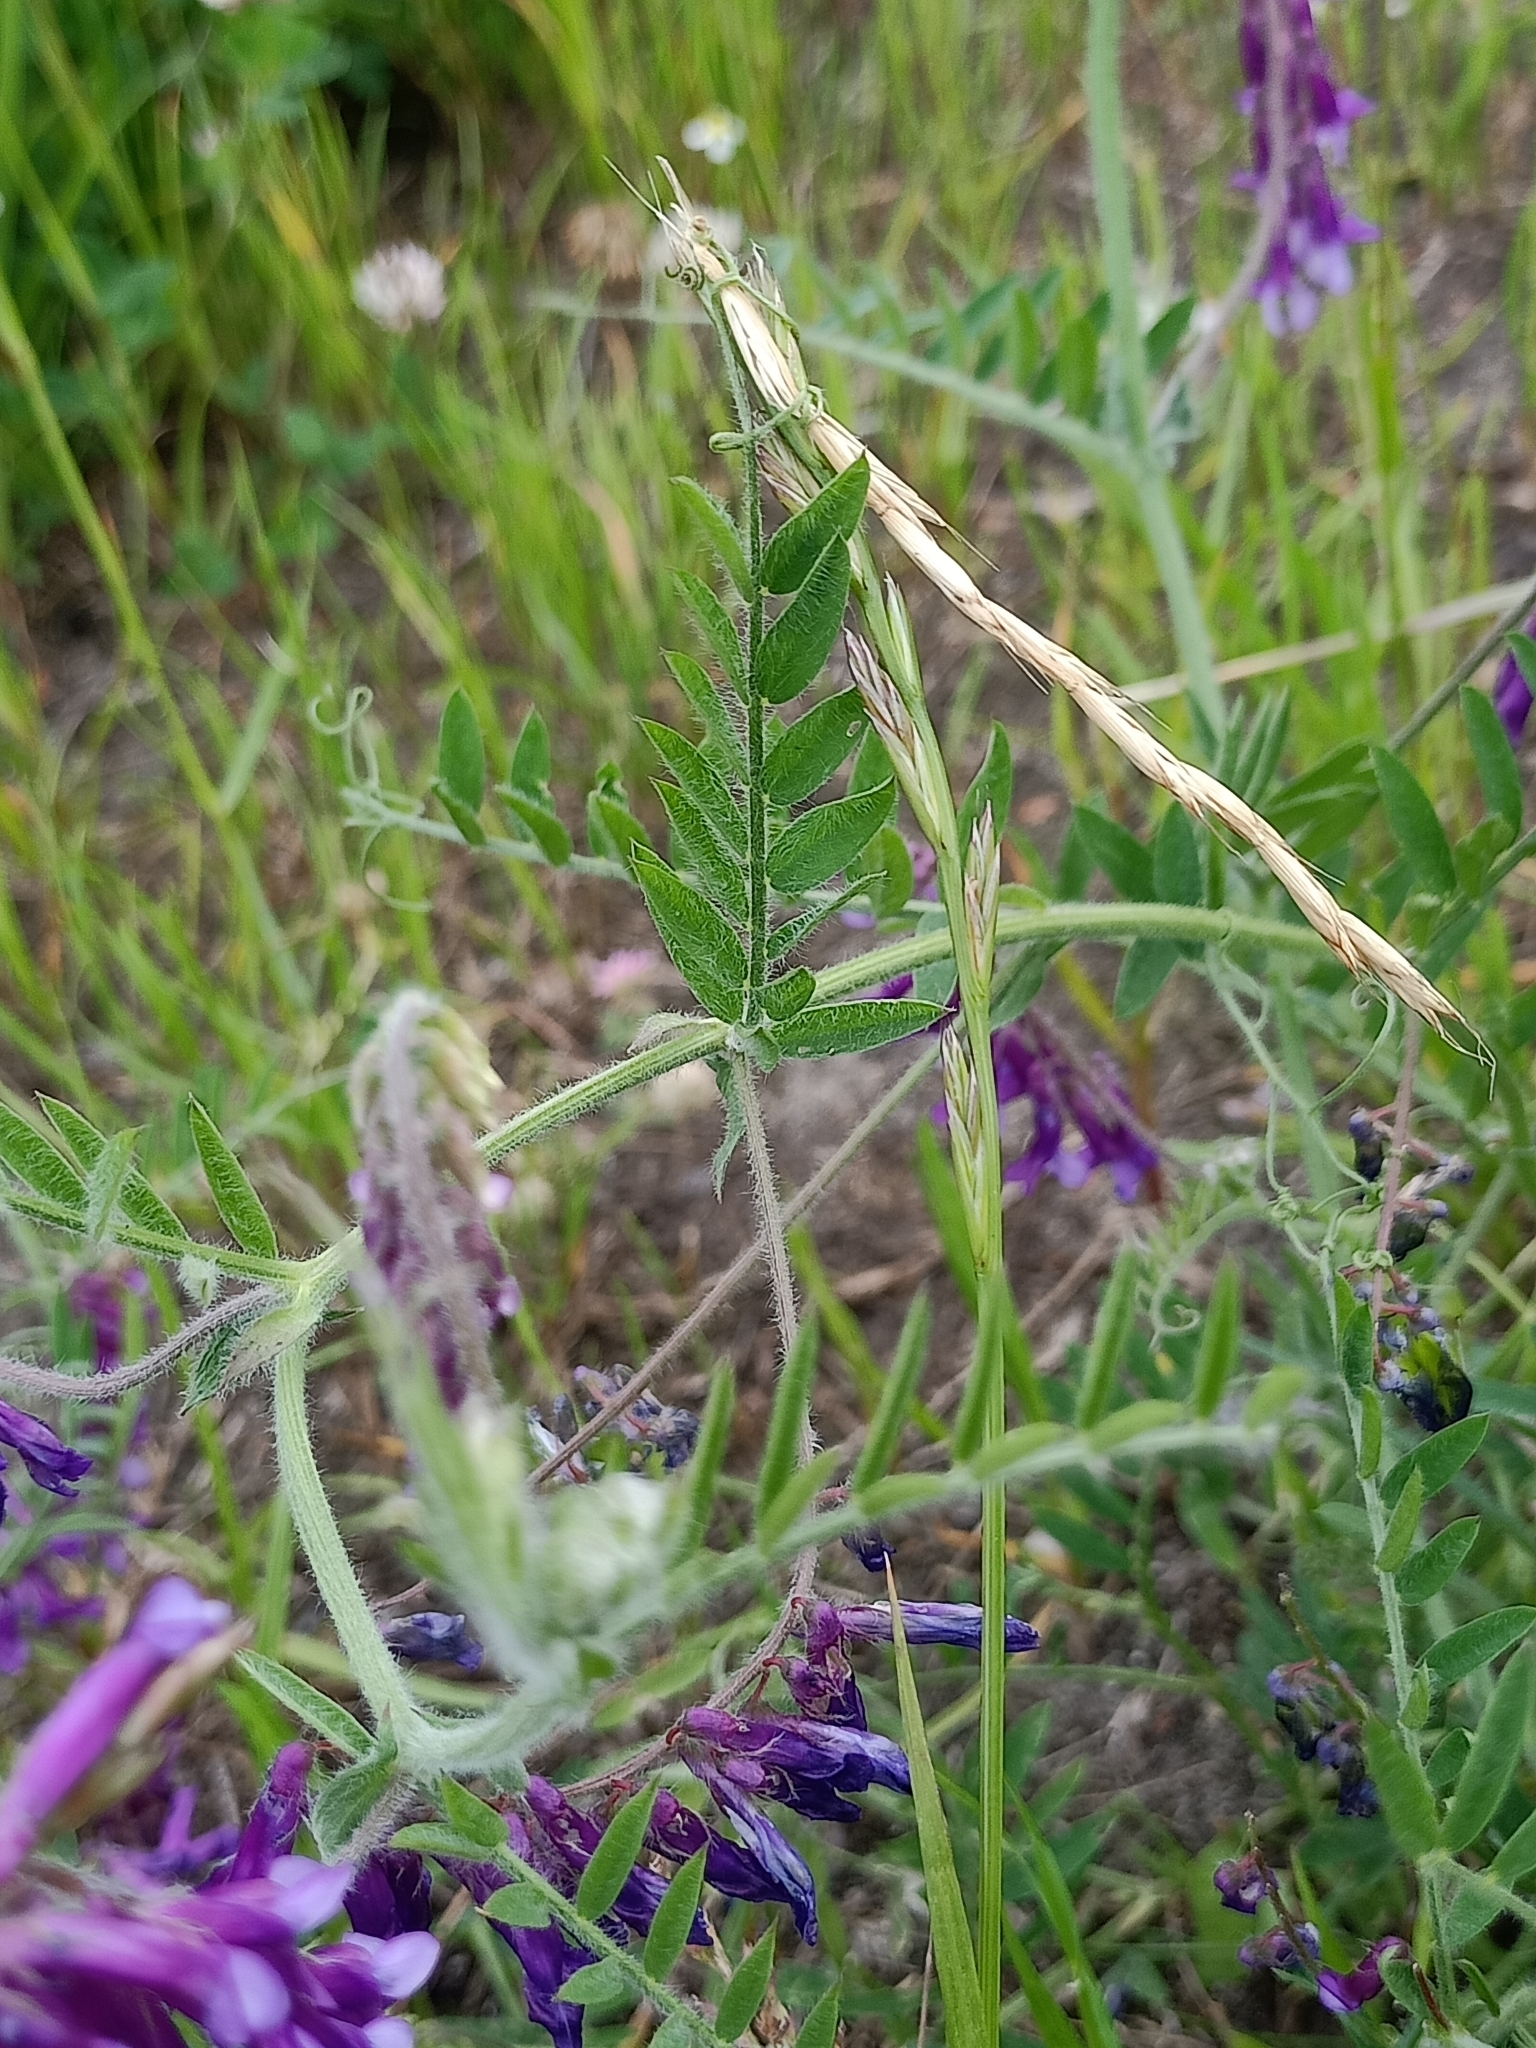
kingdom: Plantae
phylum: Tracheophyta
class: Magnoliopsida
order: Fabales
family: Fabaceae
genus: Vicia
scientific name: Vicia villosa
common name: Fodder vetch
